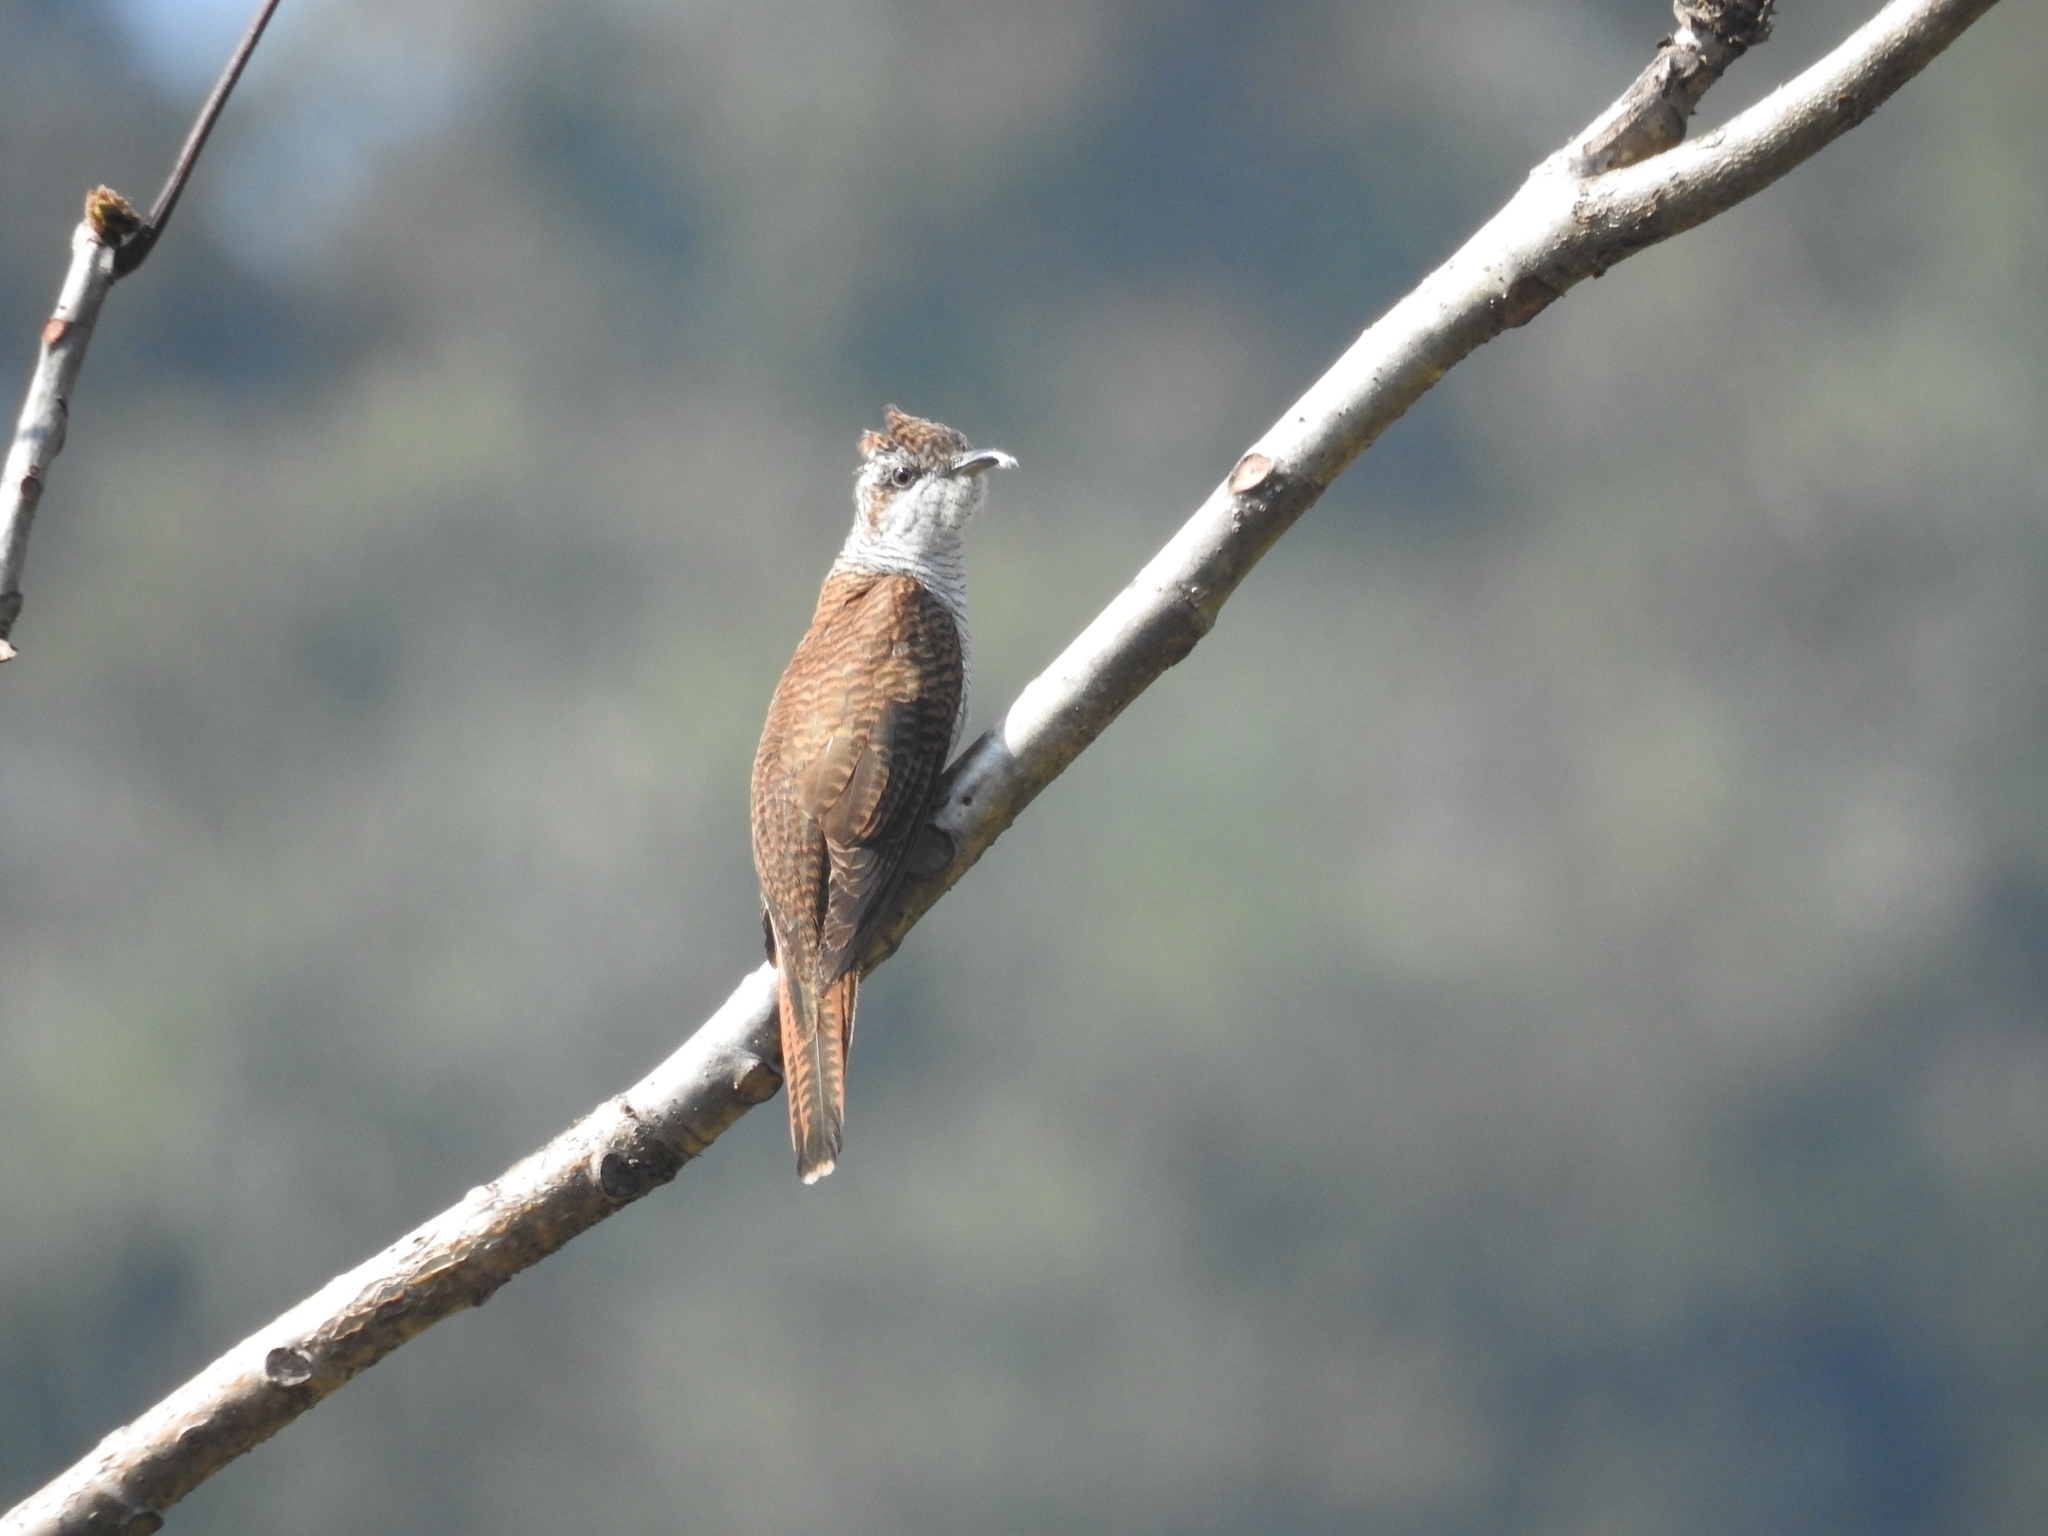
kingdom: Animalia
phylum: Chordata
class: Aves
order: Cuculiformes
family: Cuculidae
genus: Cacomantis
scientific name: Cacomantis sonneratii
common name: Banded bay cuckoo
